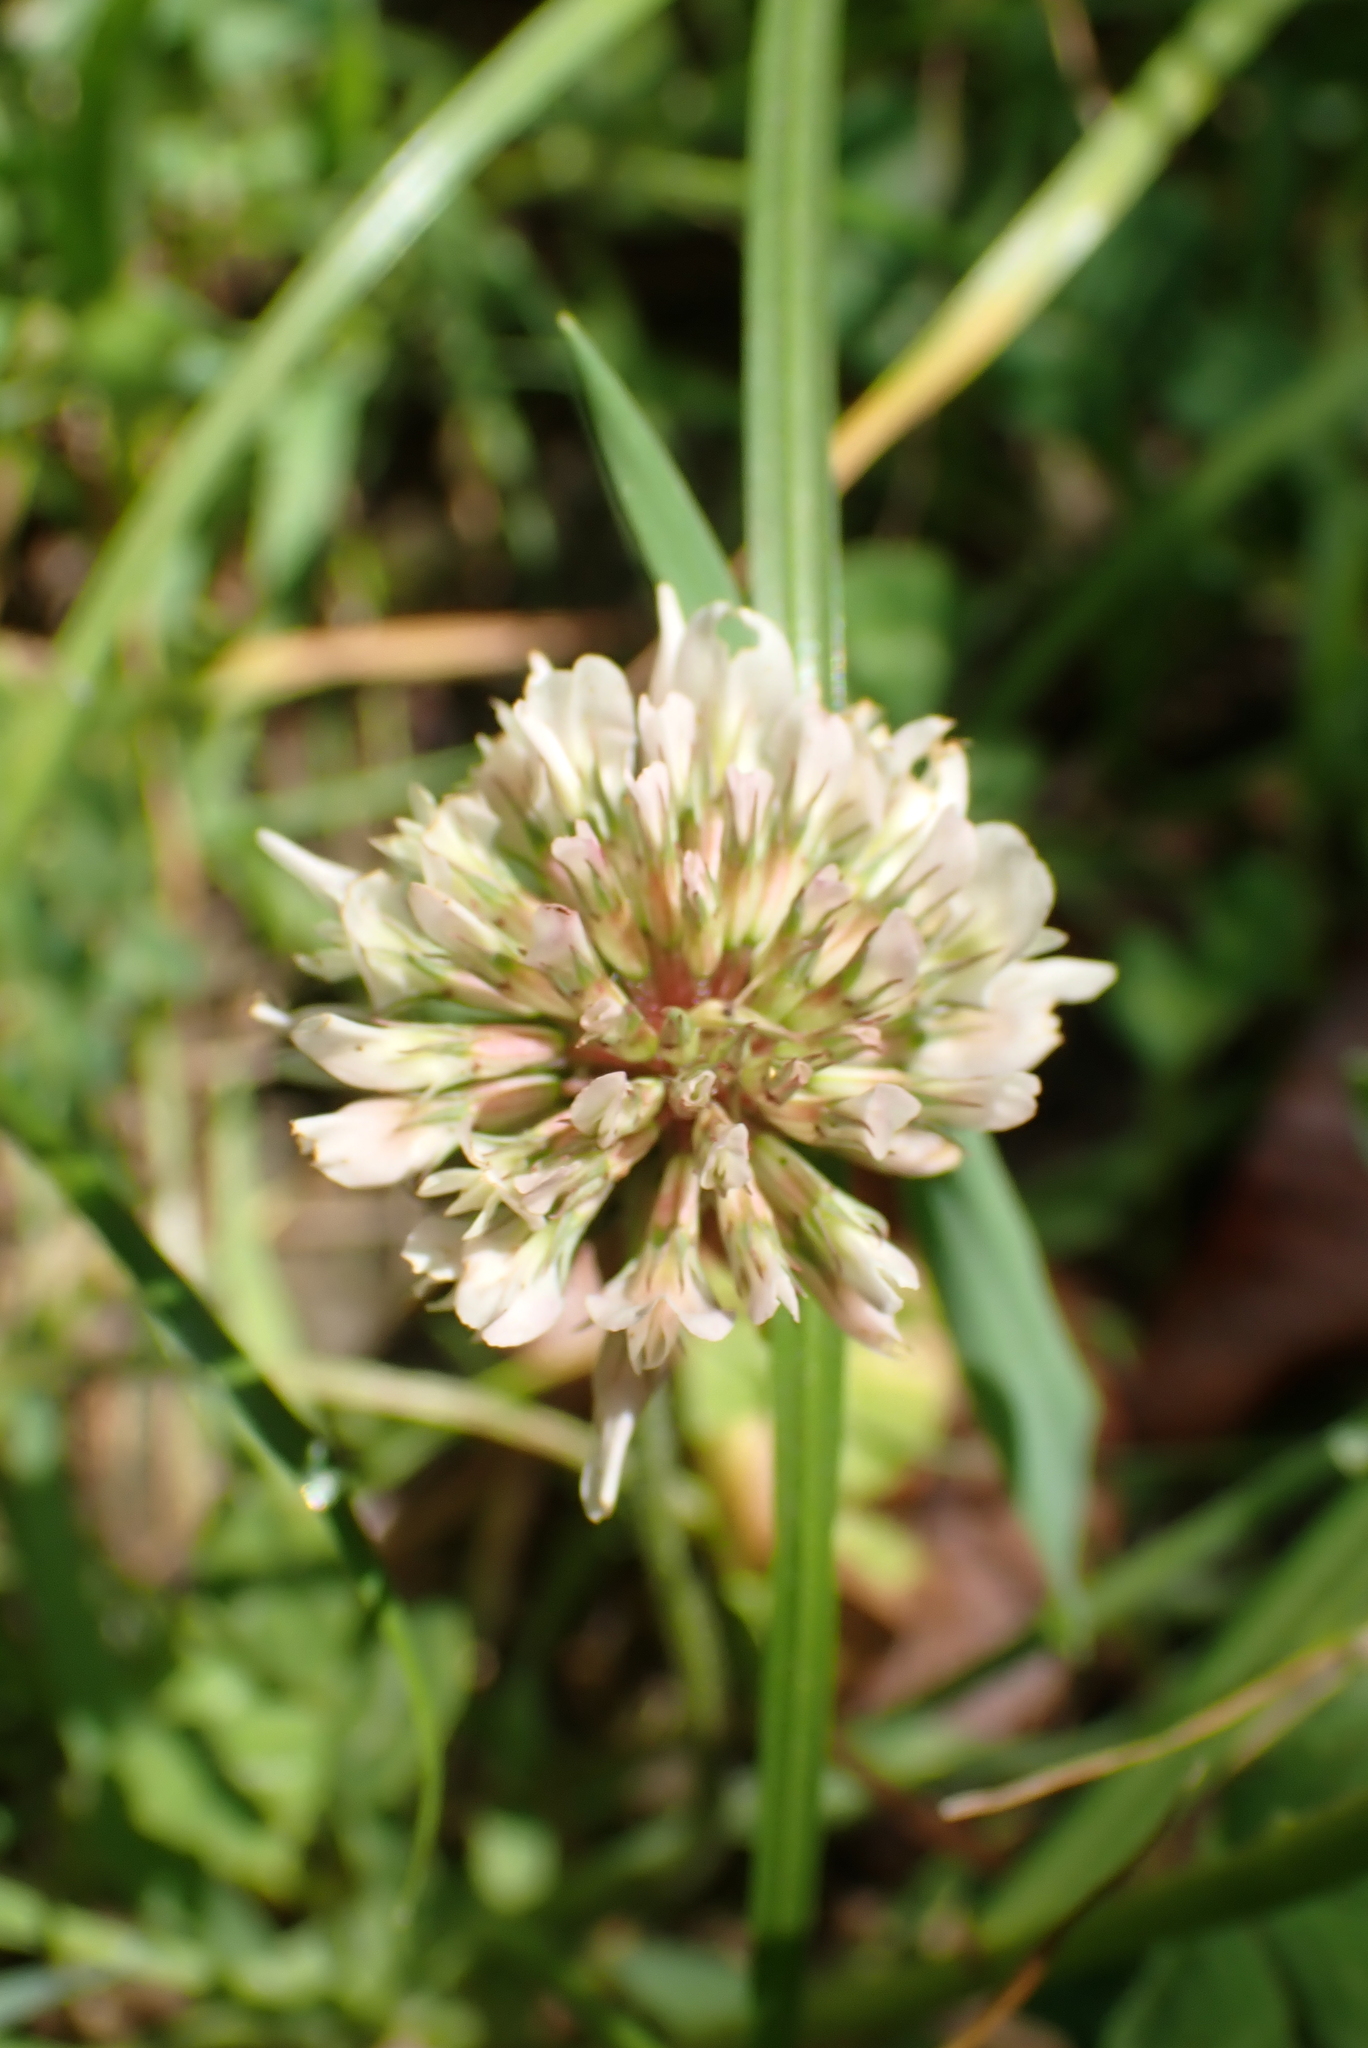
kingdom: Plantae
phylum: Tracheophyta
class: Magnoliopsida
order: Fabales
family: Fabaceae
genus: Trifolium
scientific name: Trifolium repens
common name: White clover
